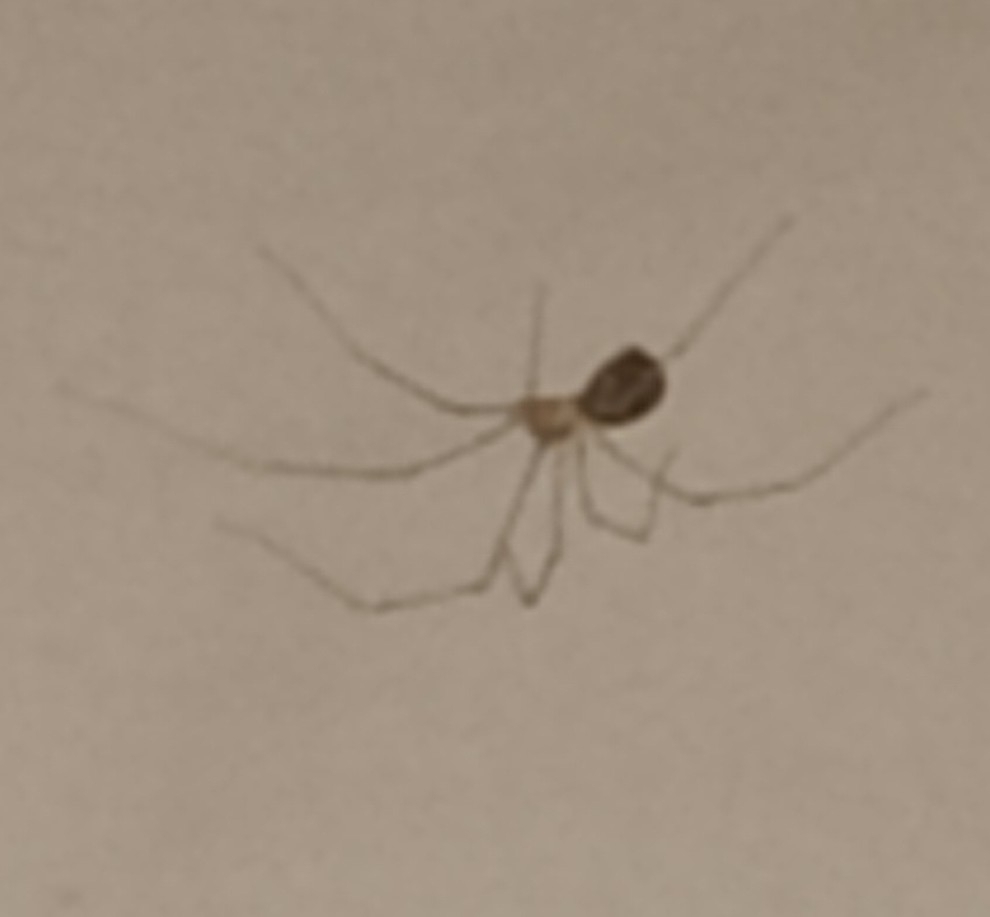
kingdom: Animalia
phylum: Arthropoda
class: Arachnida
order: Araneae
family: Pholcidae
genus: Pholcus
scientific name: Pholcus phalangioides
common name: Longbodied cellar spider
